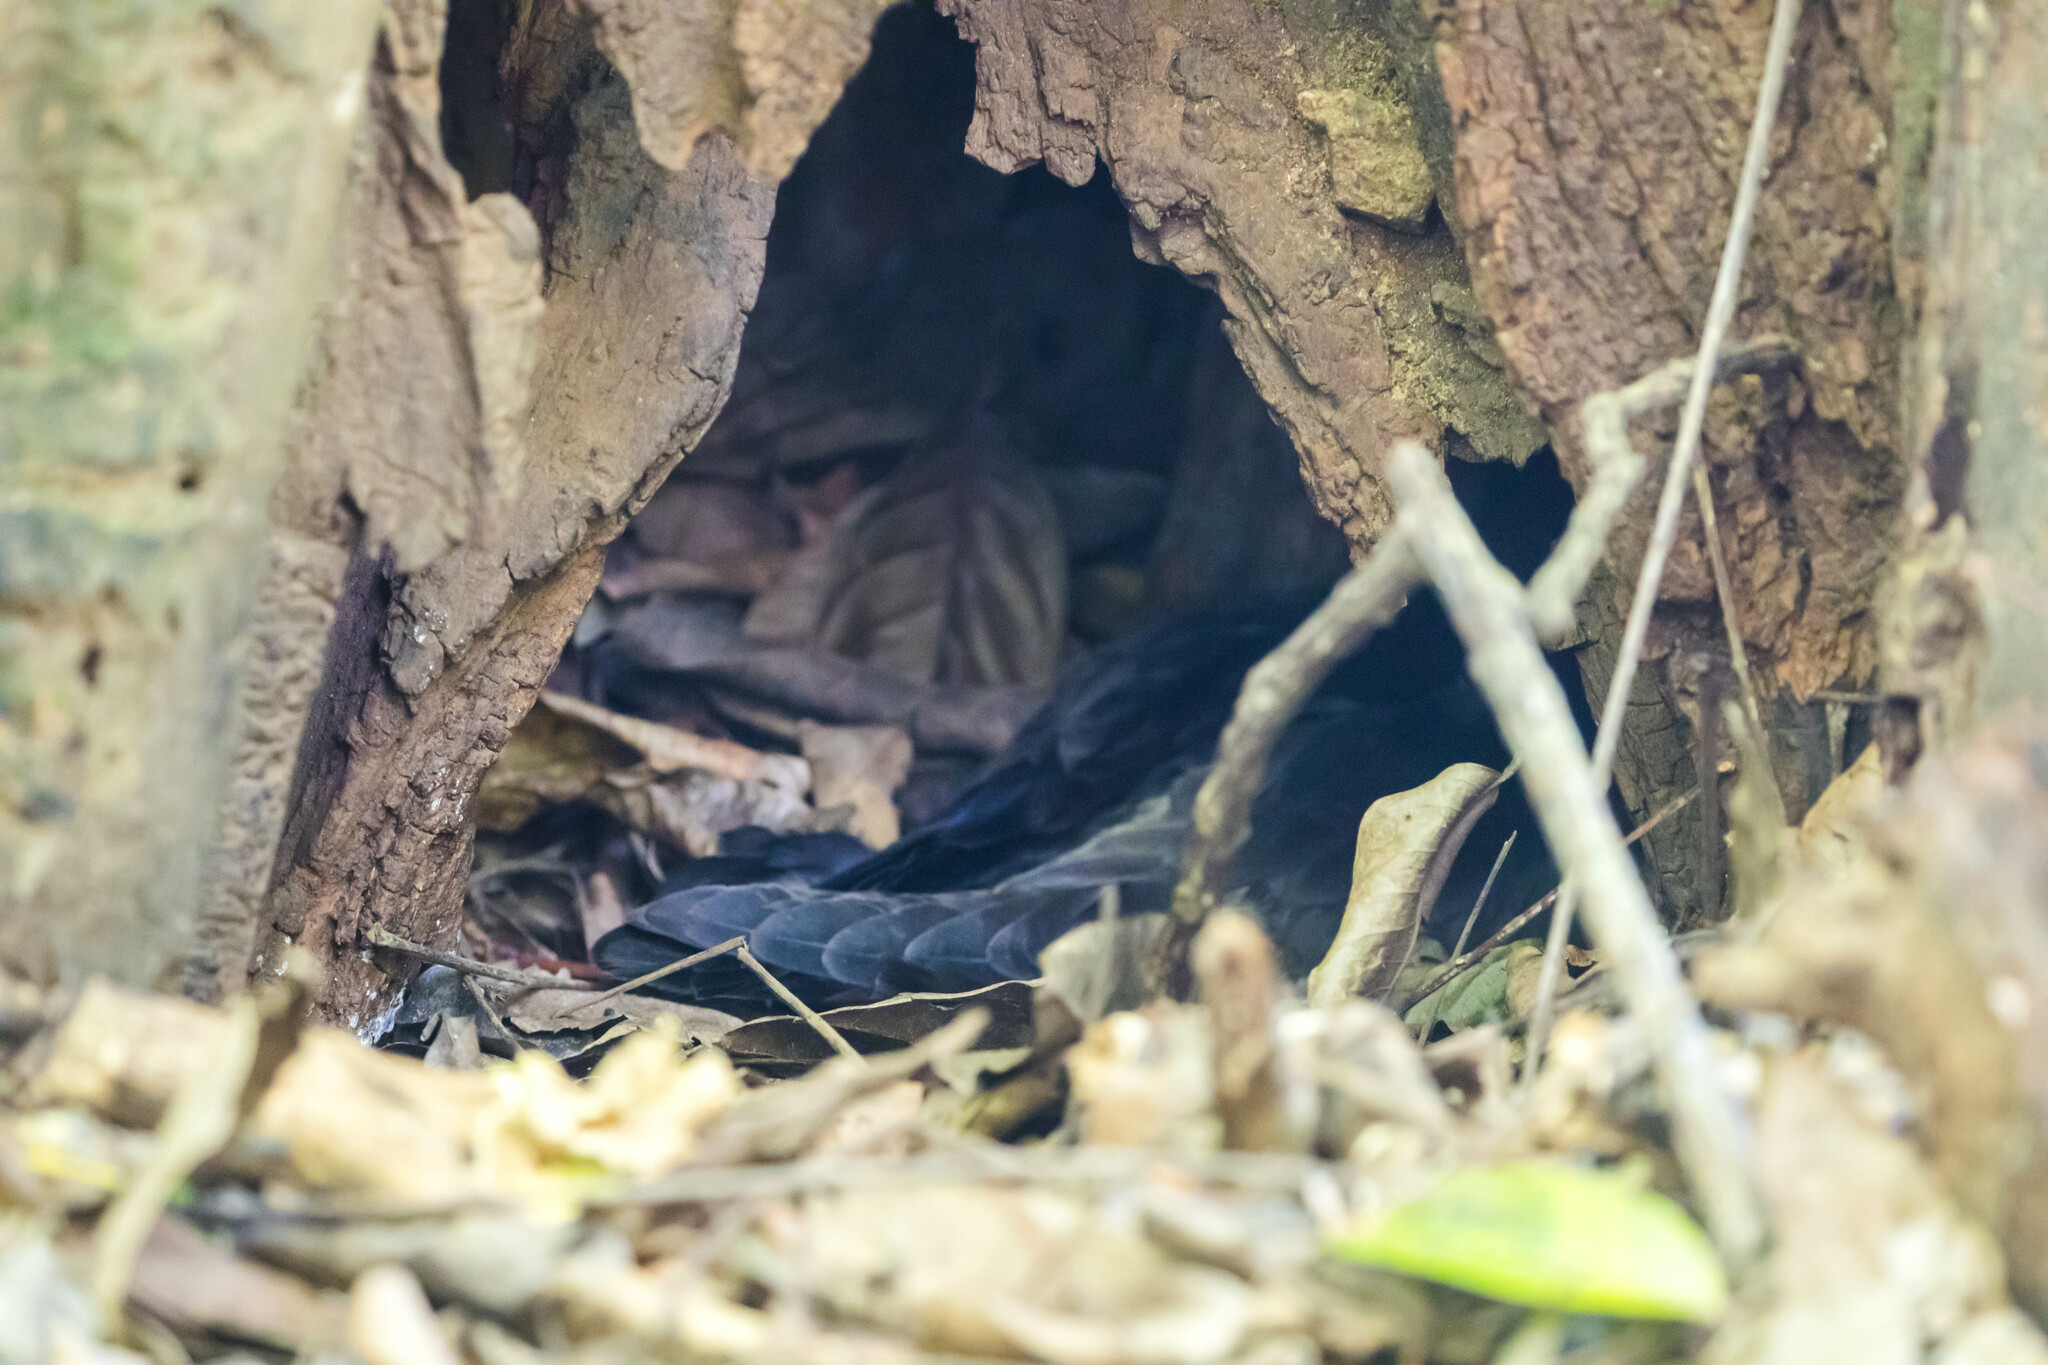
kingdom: Animalia
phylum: Chordata
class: Aves
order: Procellariiformes
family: Procellariidae
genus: Puffinus
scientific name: Puffinus lherminieri
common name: Audubon's shearwater
